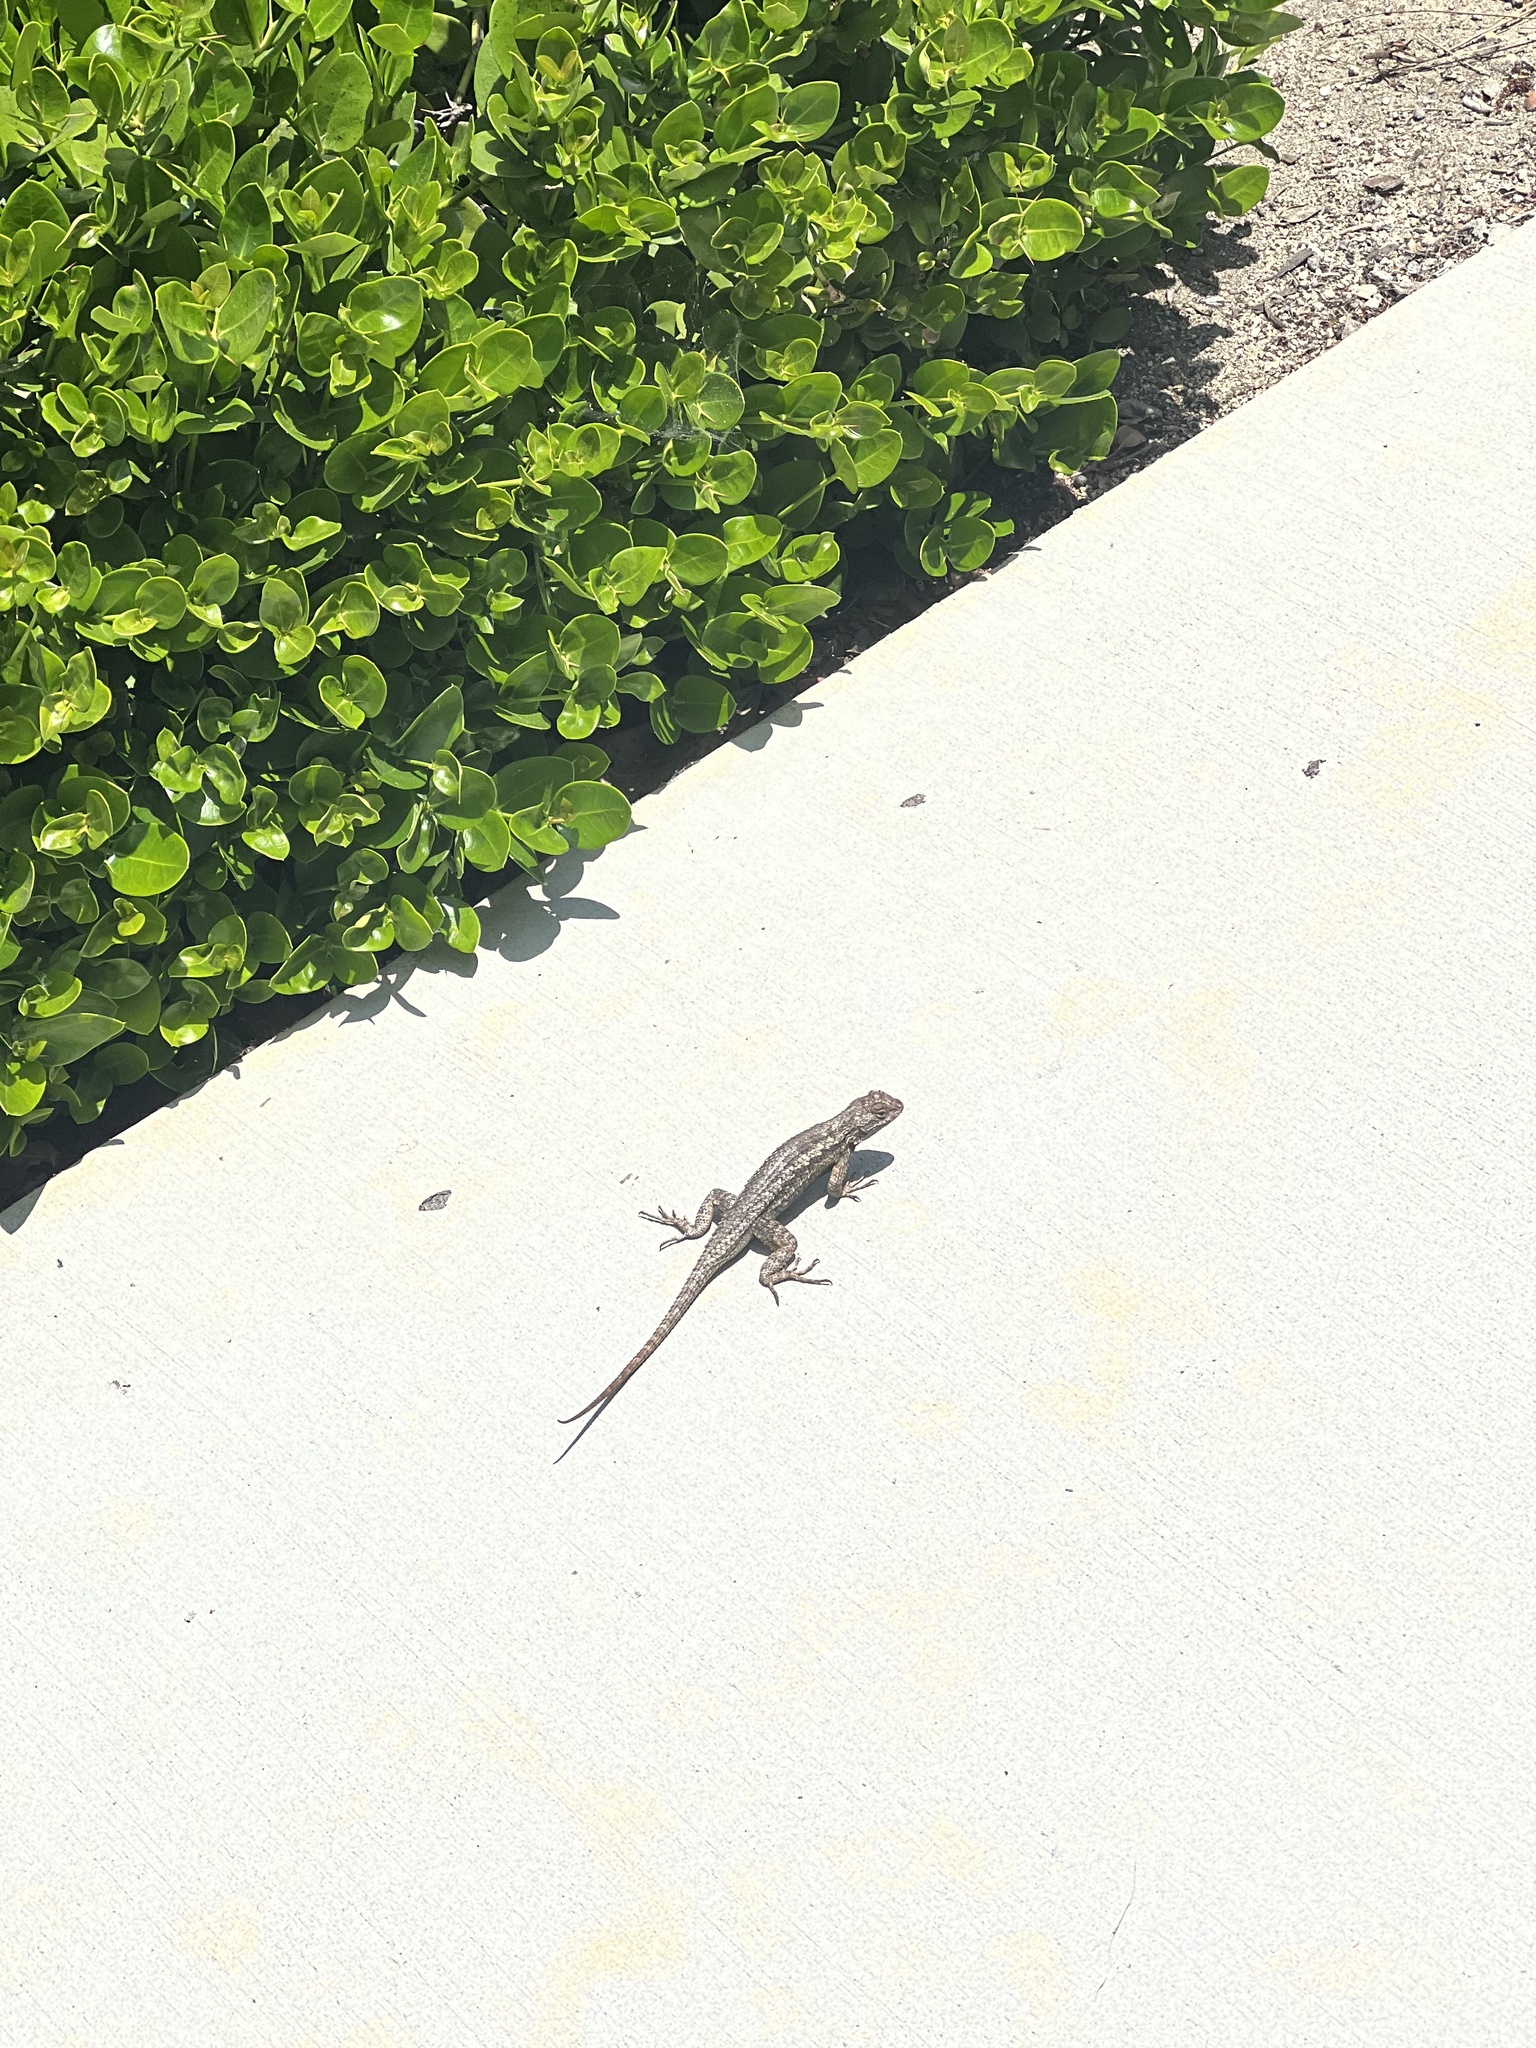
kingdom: Animalia
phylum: Chordata
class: Squamata
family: Phrynosomatidae
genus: Sceloporus
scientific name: Sceloporus occidentalis
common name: Western fence lizard
